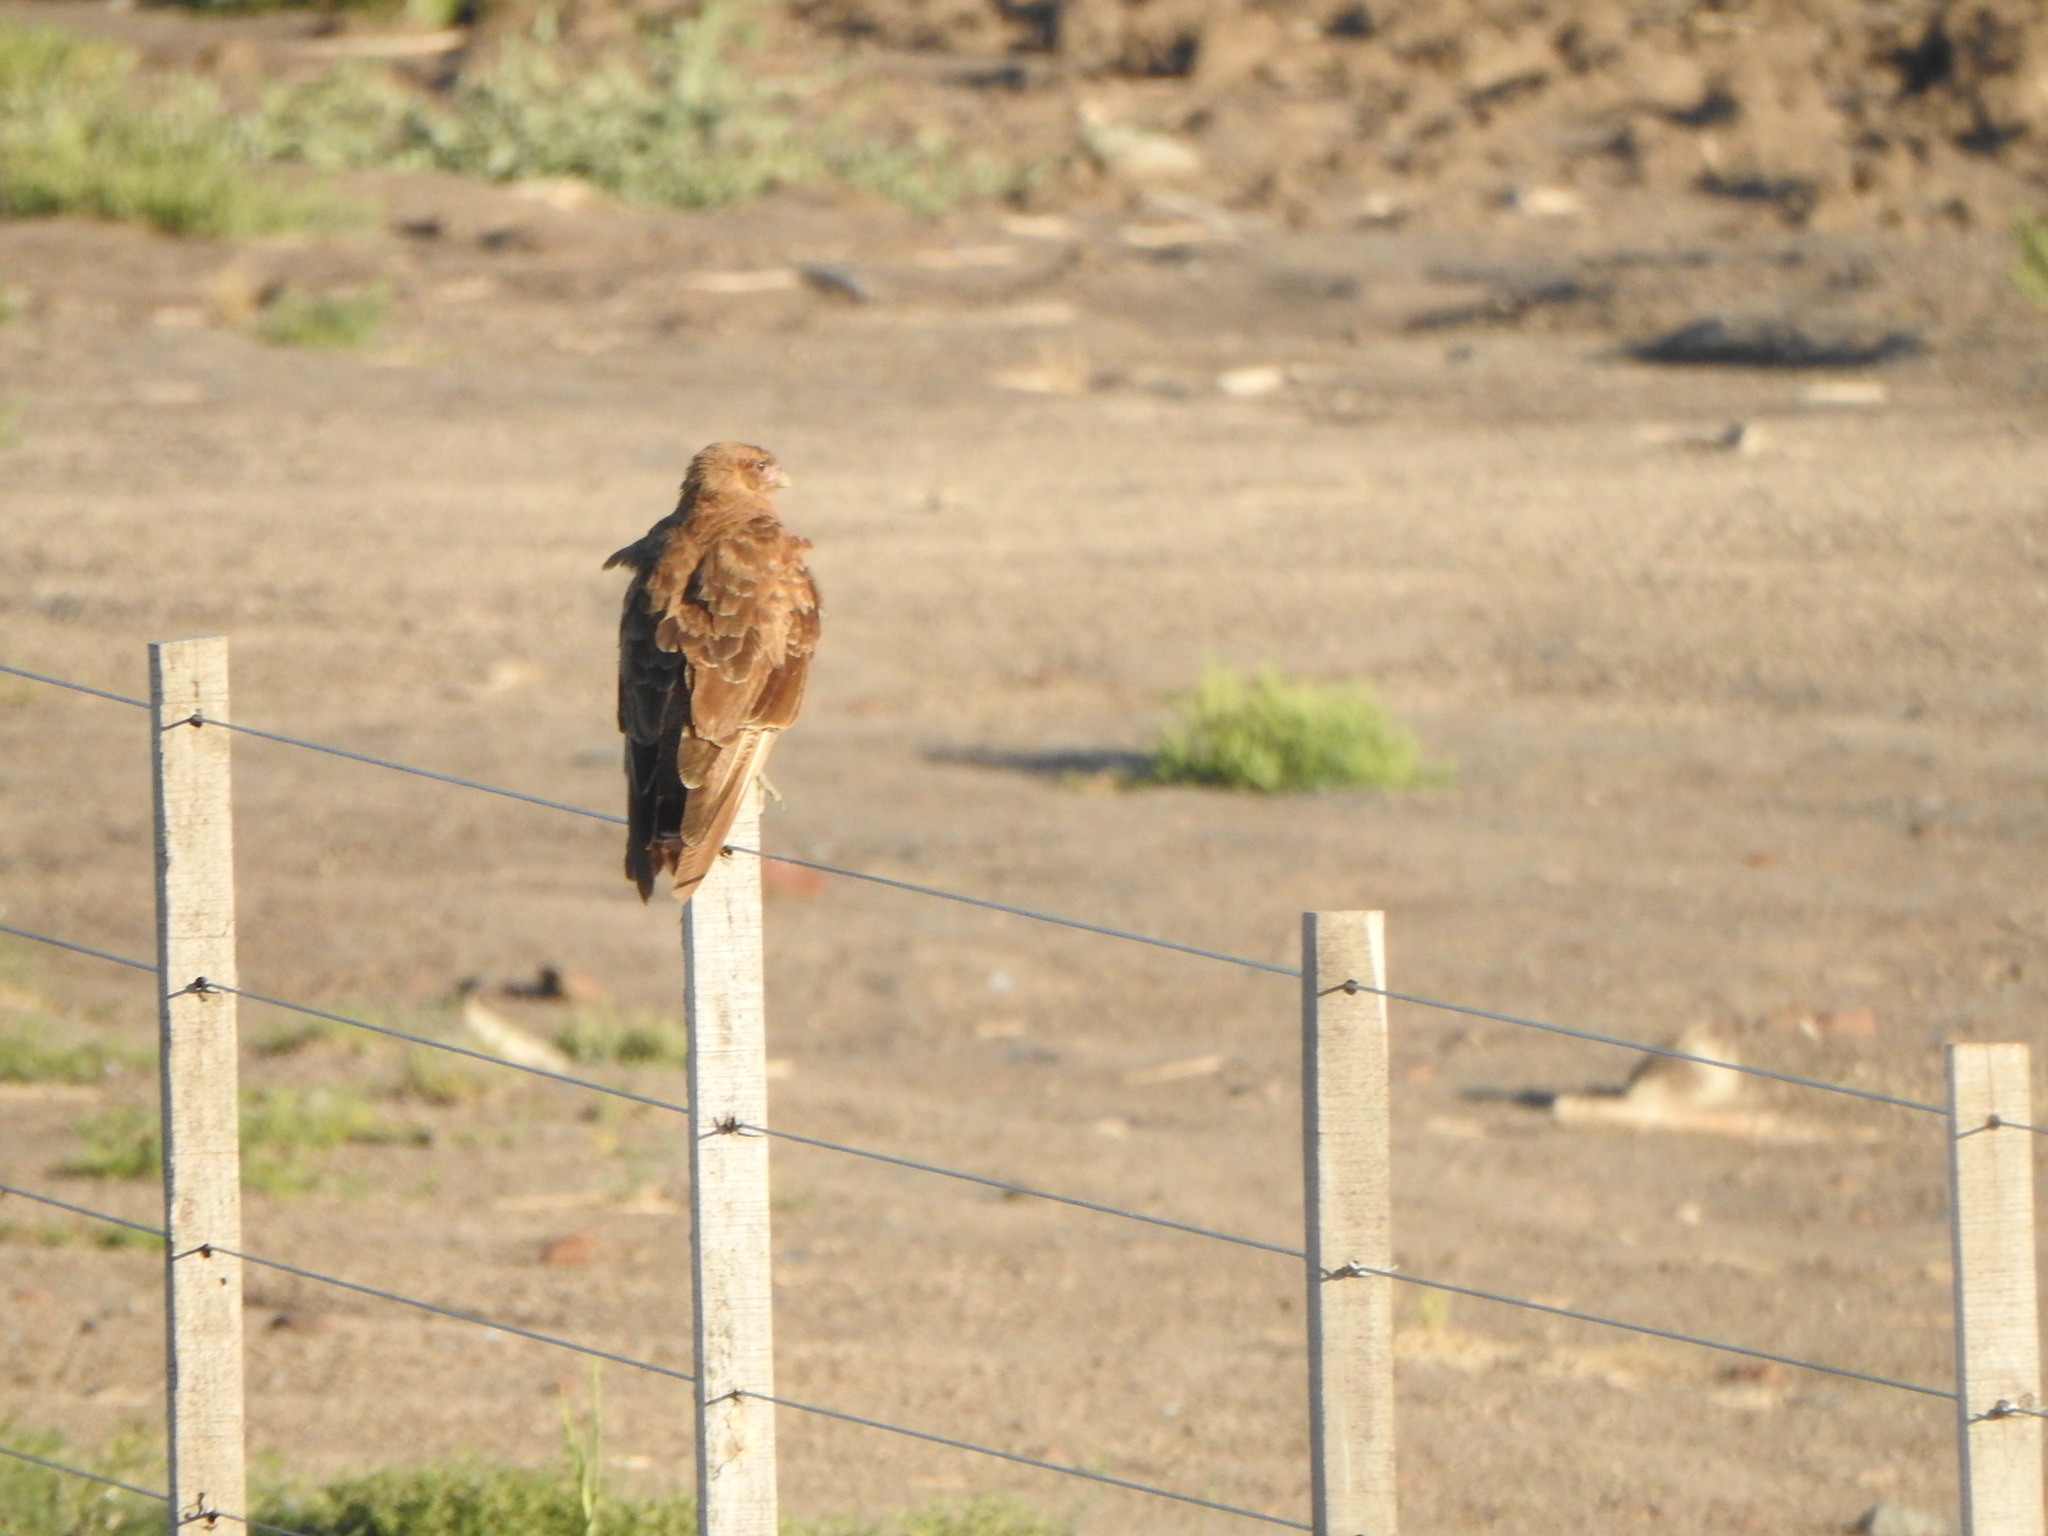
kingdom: Animalia
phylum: Chordata
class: Aves
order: Falconiformes
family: Falconidae
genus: Daptrius
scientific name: Daptrius
